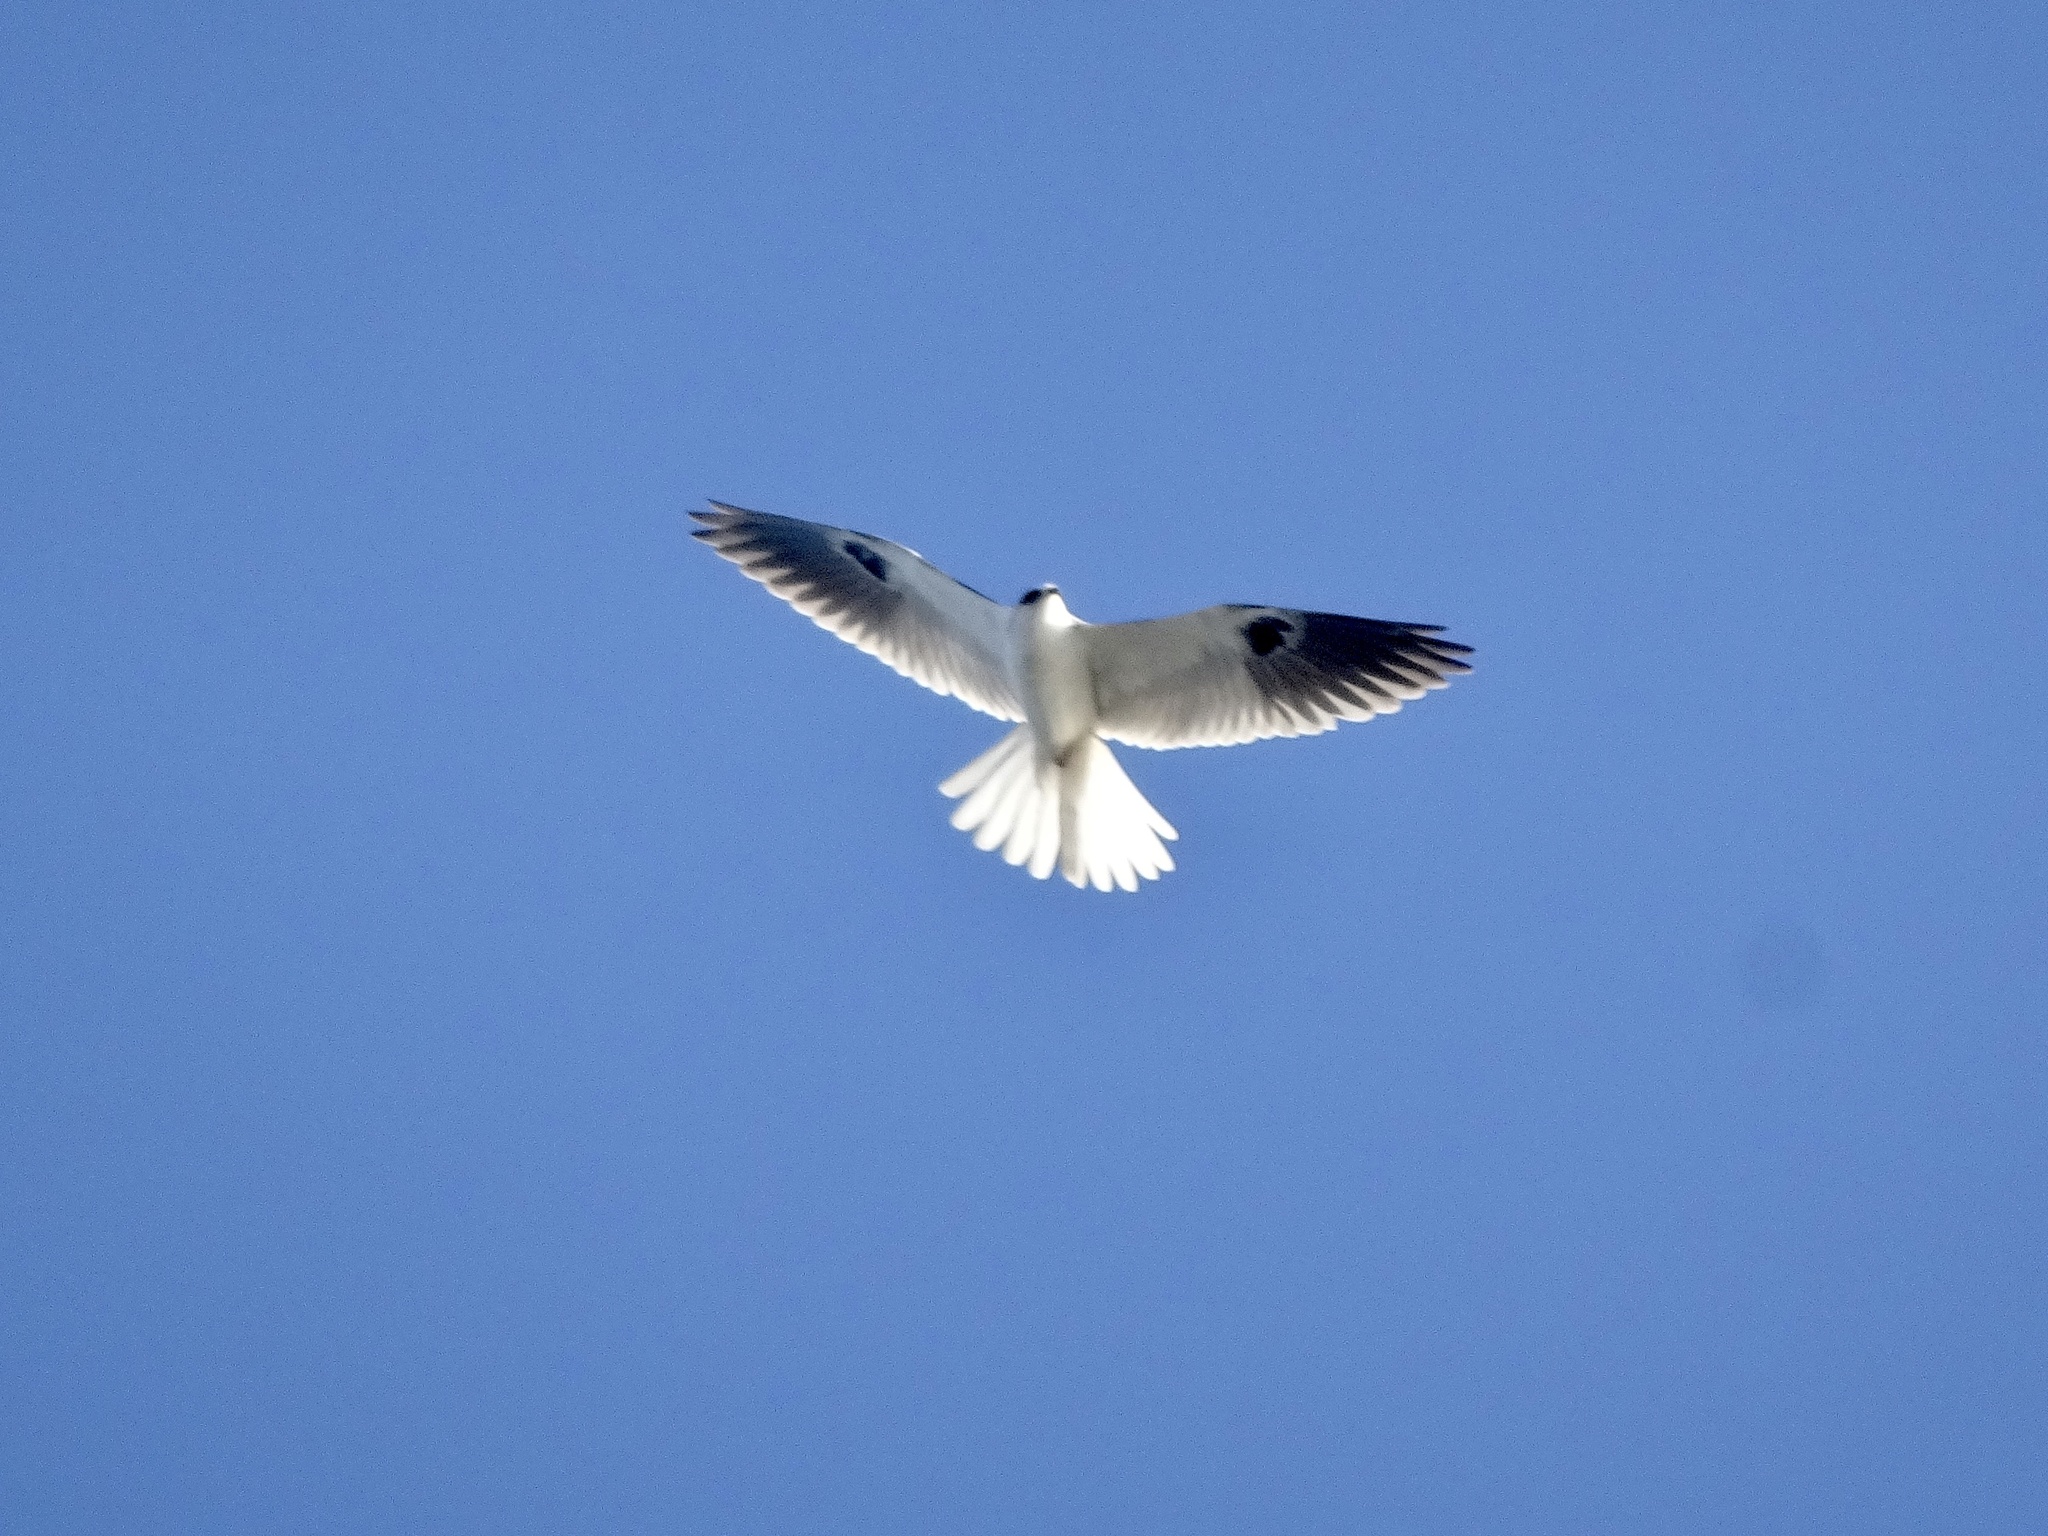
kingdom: Animalia
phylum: Chordata
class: Aves
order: Accipitriformes
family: Accipitridae
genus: Elanus
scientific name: Elanus leucurus
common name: White-tailed kite
